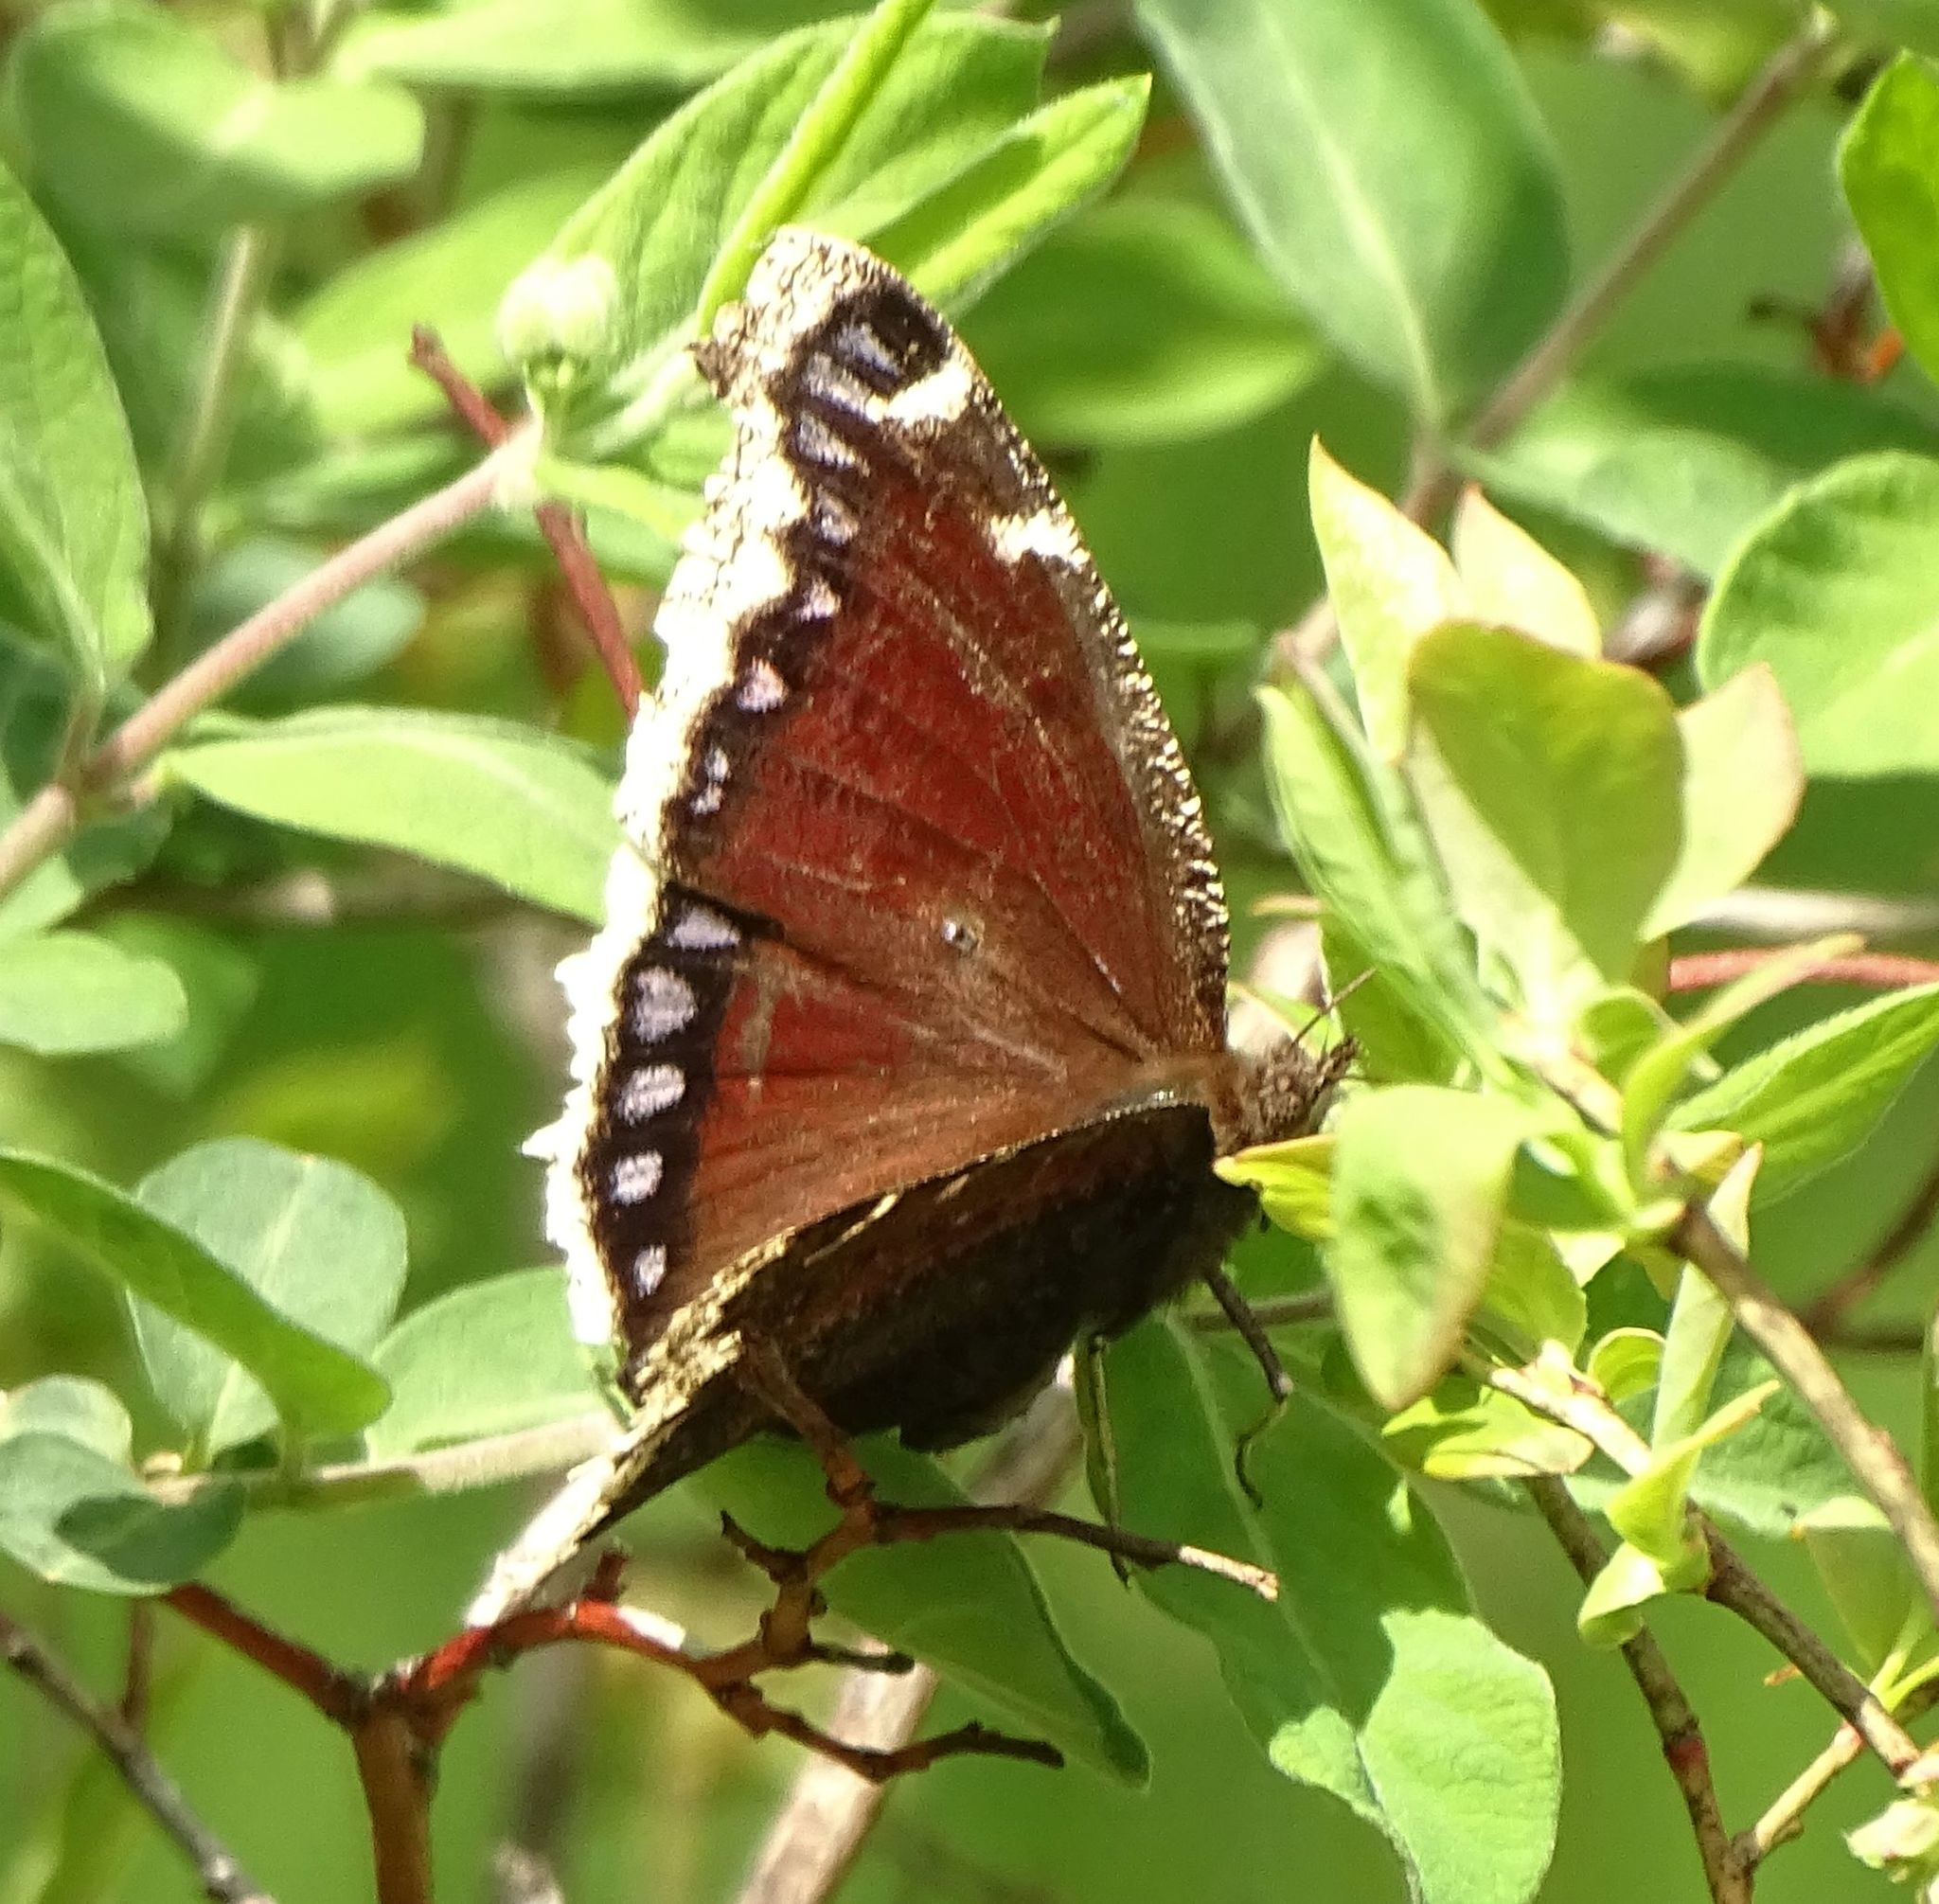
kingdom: Animalia
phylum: Arthropoda
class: Insecta
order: Lepidoptera
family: Nymphalidae
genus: Nymphalis
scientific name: Nymphalis antiopa
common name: Camberwell beauty
